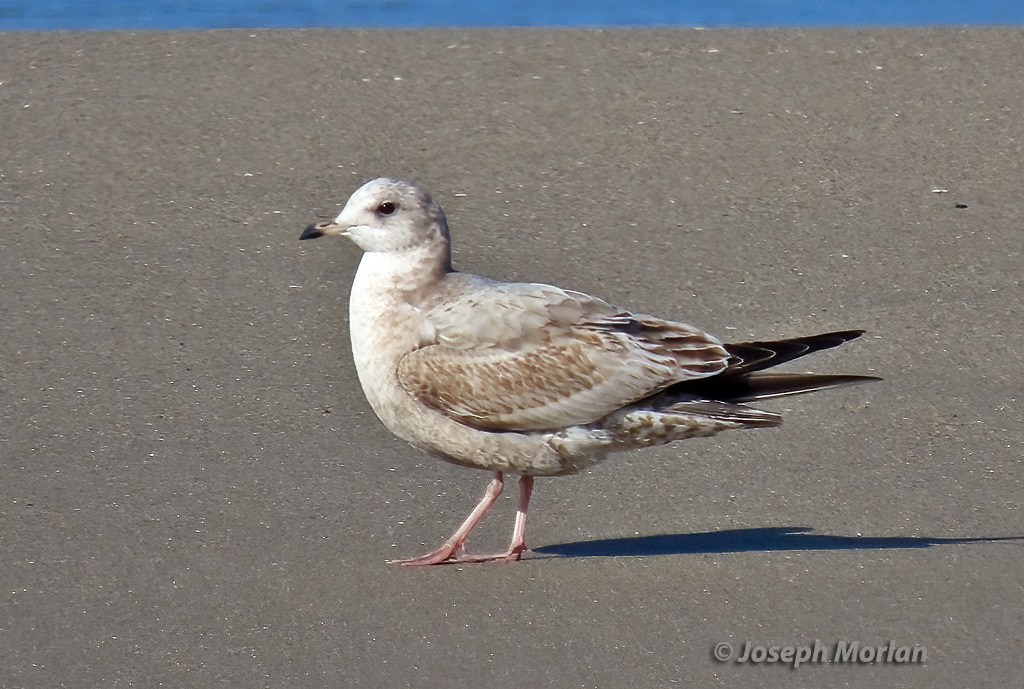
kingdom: Animalia
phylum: Chordata
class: Aves
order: Charadriiformes
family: Laridae
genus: Larus
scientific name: Larus brachyrhynchus
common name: Short-billed gull
